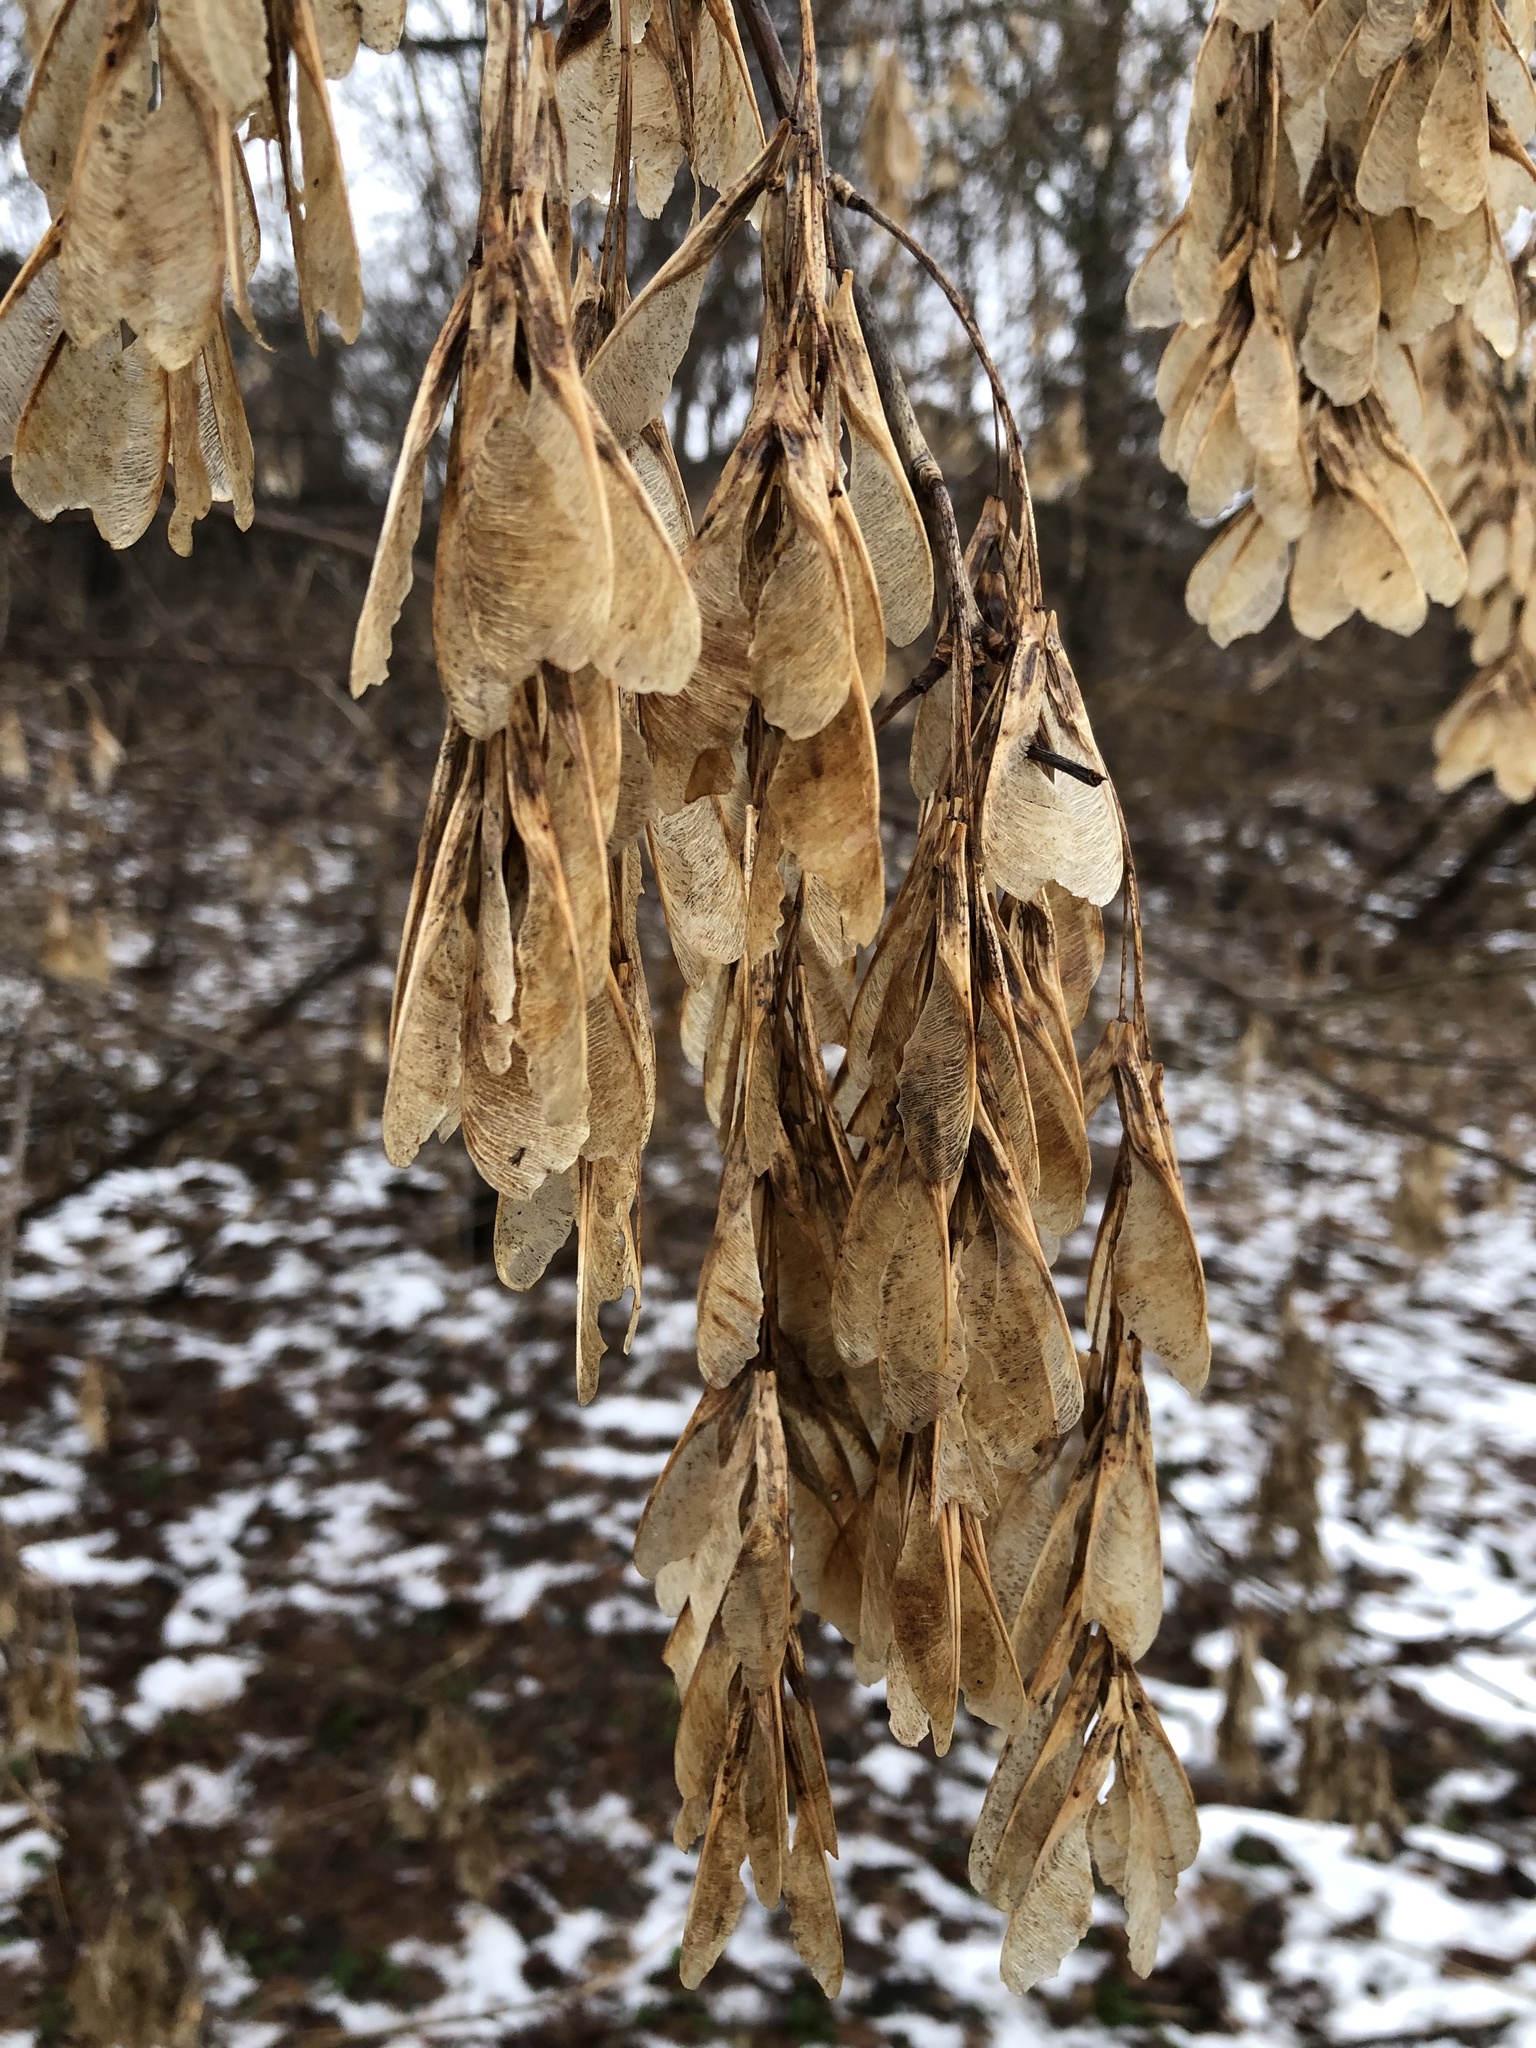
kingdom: Plantae
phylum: Tracheophyta
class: Magnoliopsida
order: Sapindales
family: Sapindaceae
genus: Acer
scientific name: Acer negundo
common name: Ashleaf maple
